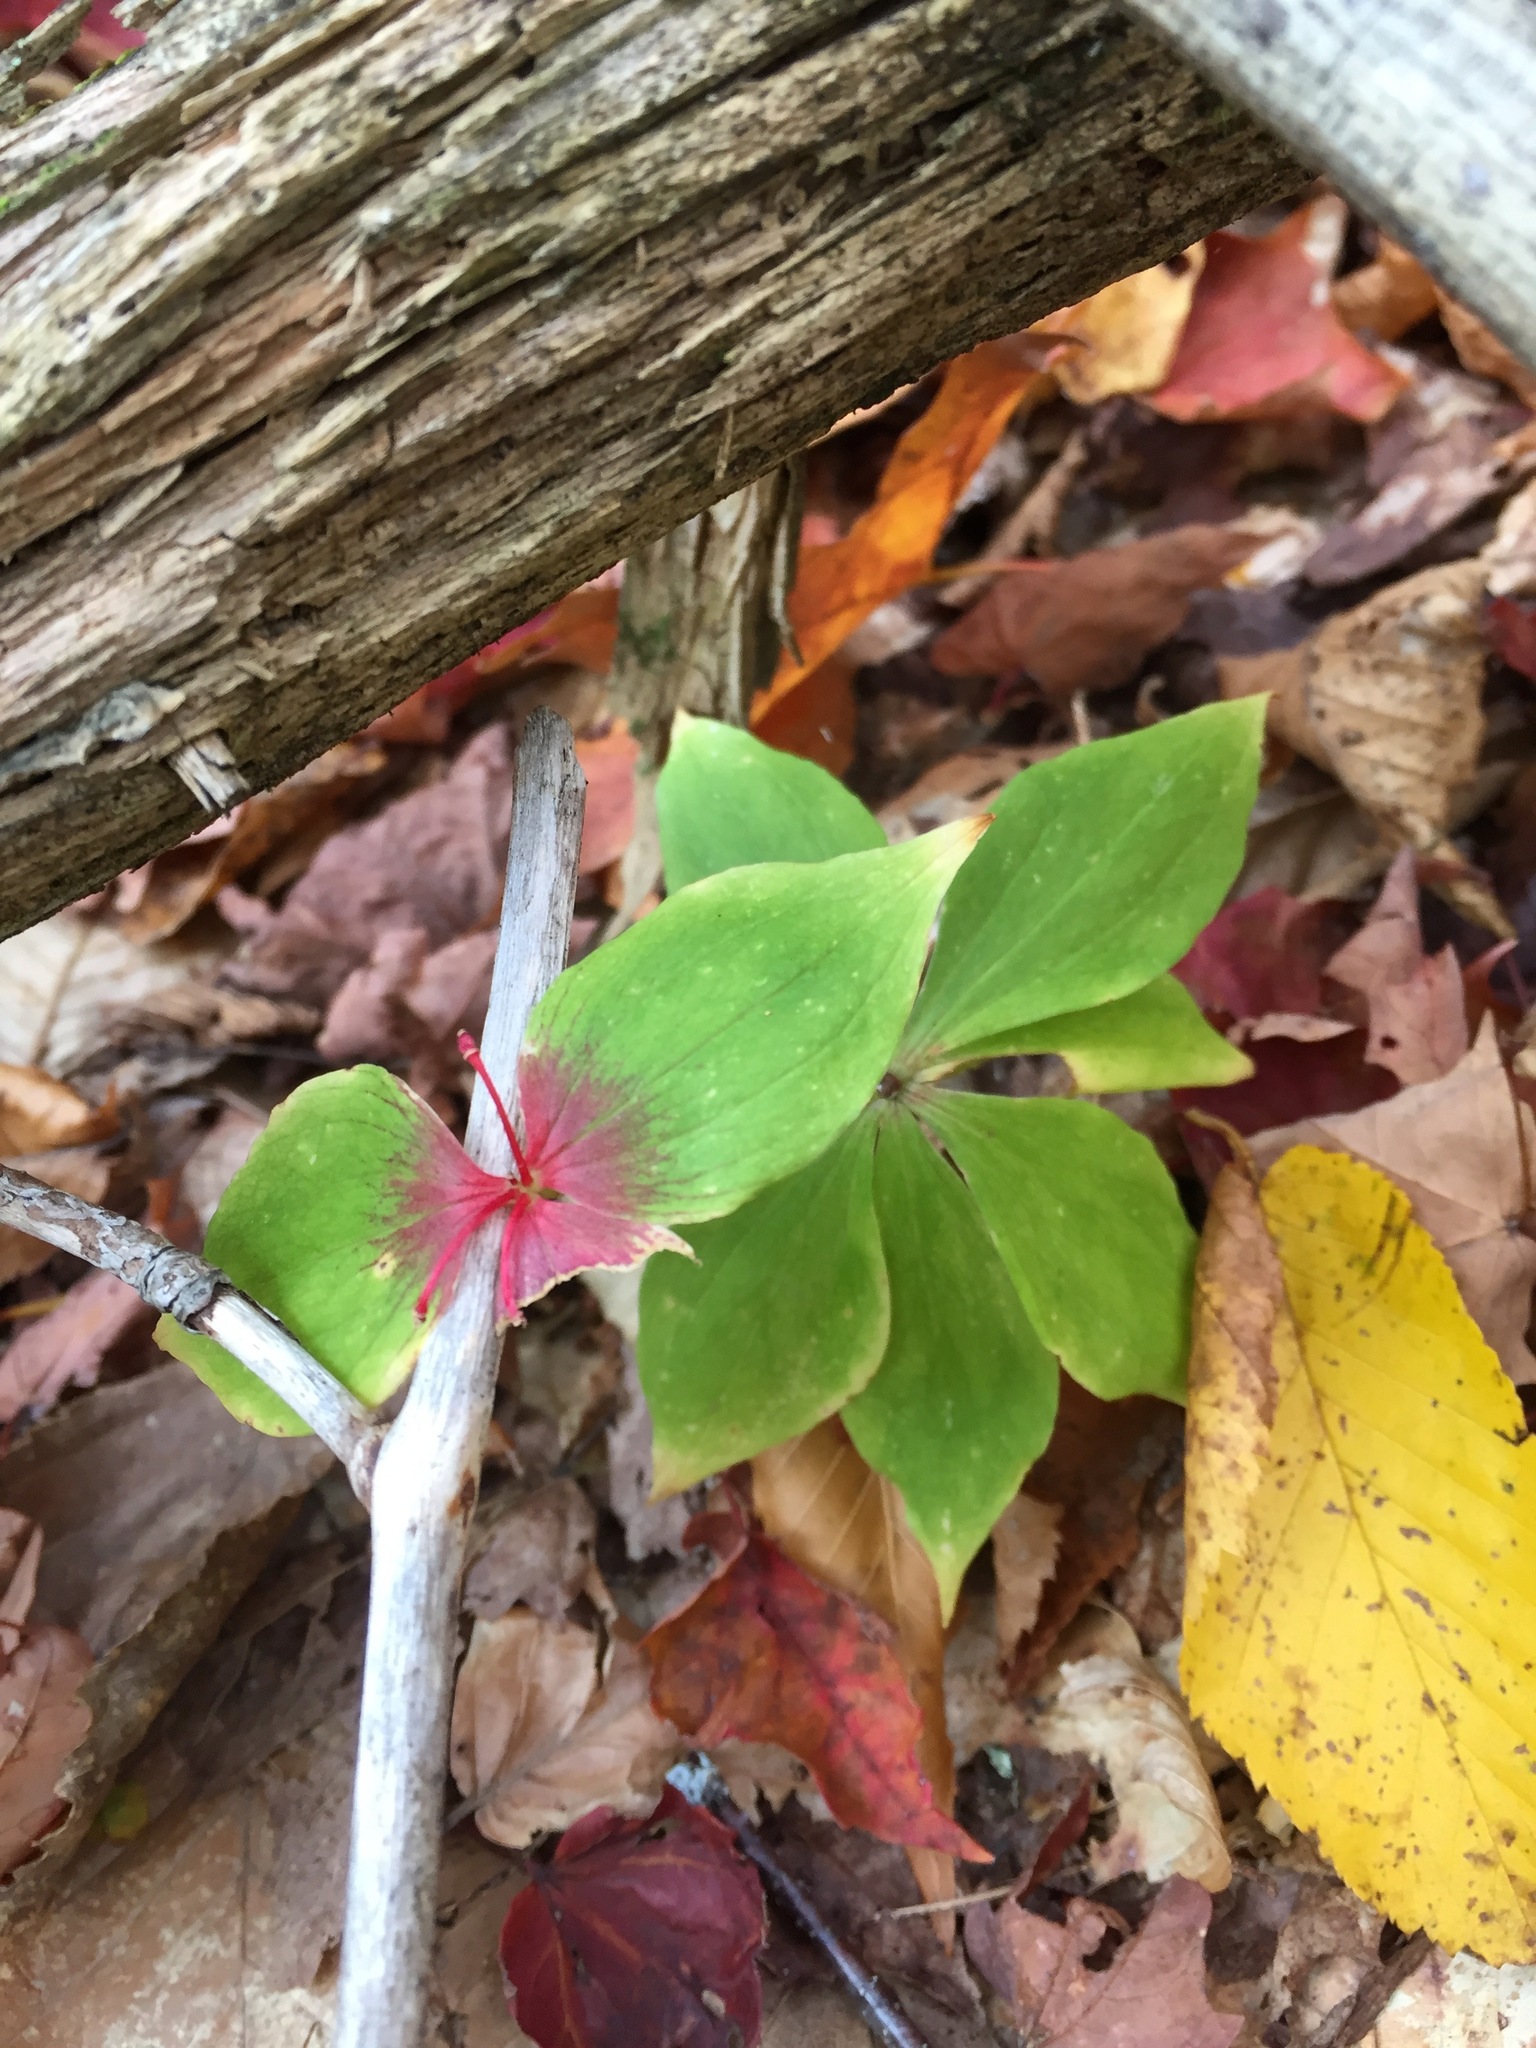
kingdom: Plantae
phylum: Tracheophyta
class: Liliopsida
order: Liliales
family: Liliaceae
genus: Medeola
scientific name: Medeola virginiana
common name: Indian cucumber-root
